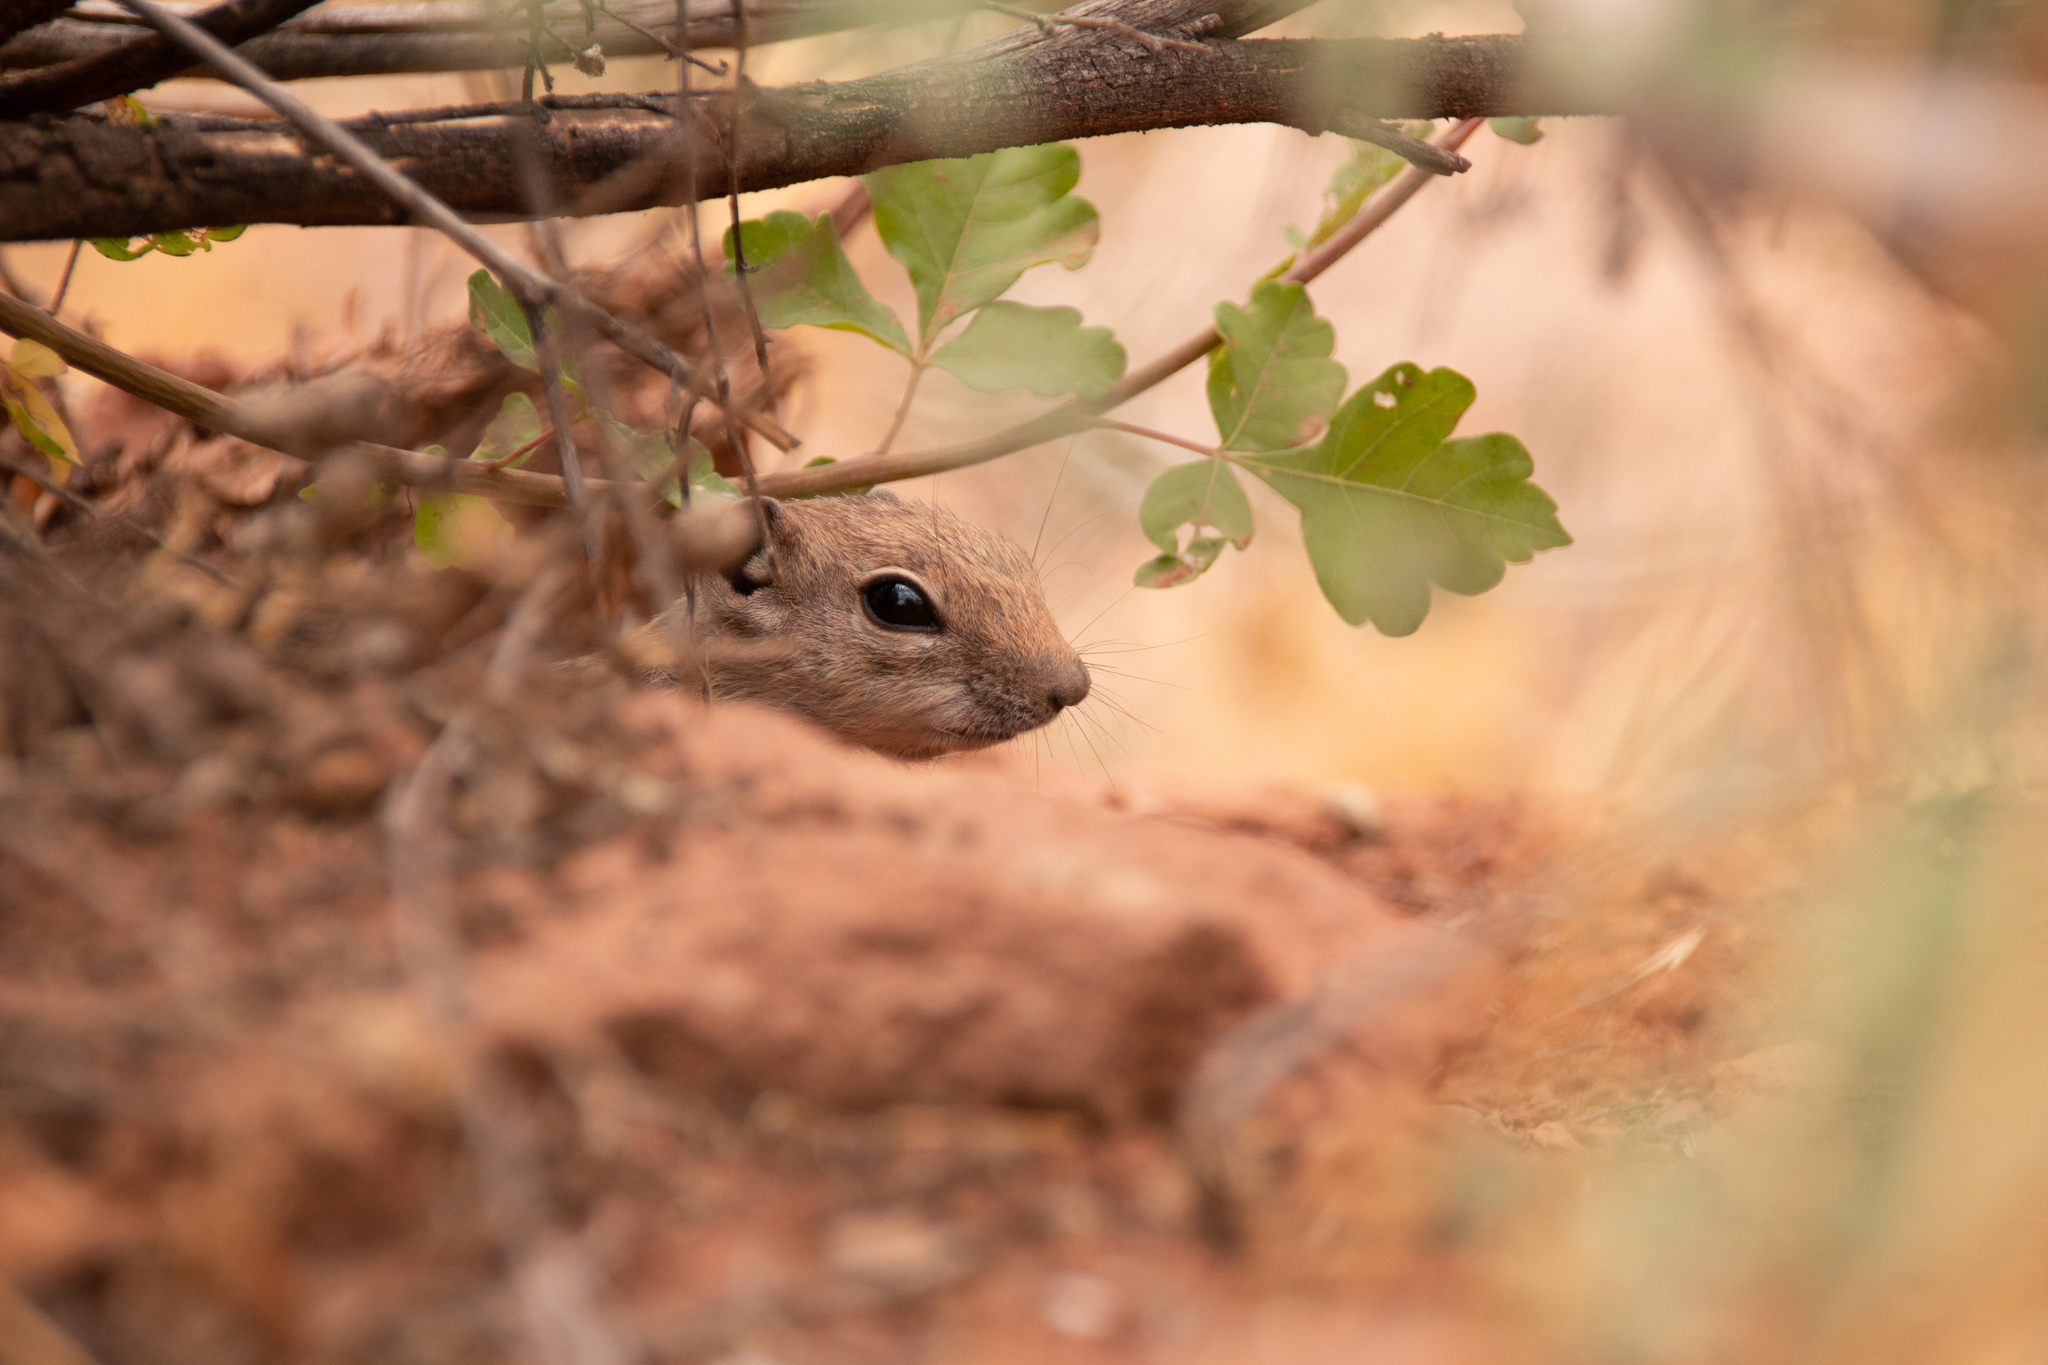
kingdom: Animalia
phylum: Chordata
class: Mammalia
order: Rodentia
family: Sciuridae
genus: Ammospermophilus
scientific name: Ammospermophilus leucurus
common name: White-tailed antelope squirrel
